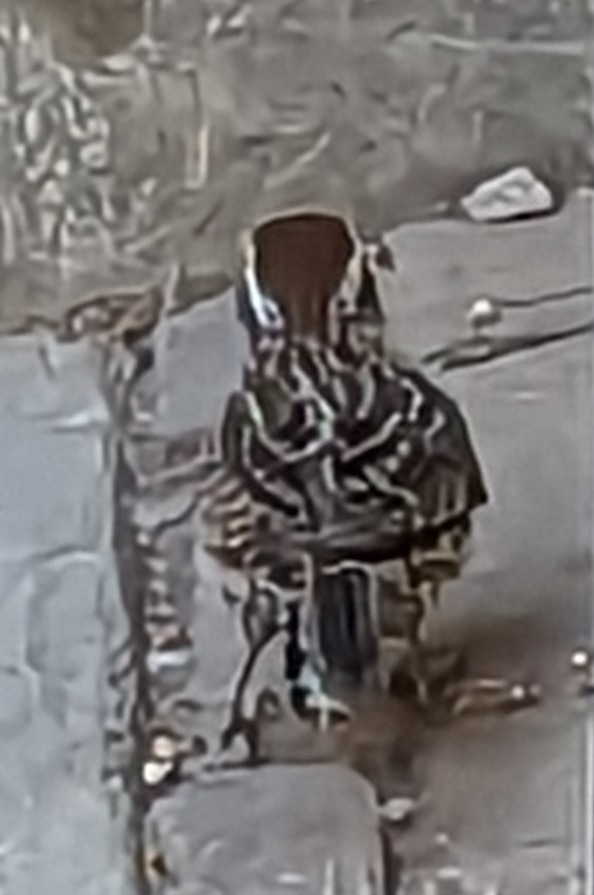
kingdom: Animalia
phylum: Chordata
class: Aves
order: Passeriformes
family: Troglodytidae
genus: Campylorhynchus
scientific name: Campylorhynchus brunneicapillus
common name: Cactus wren
